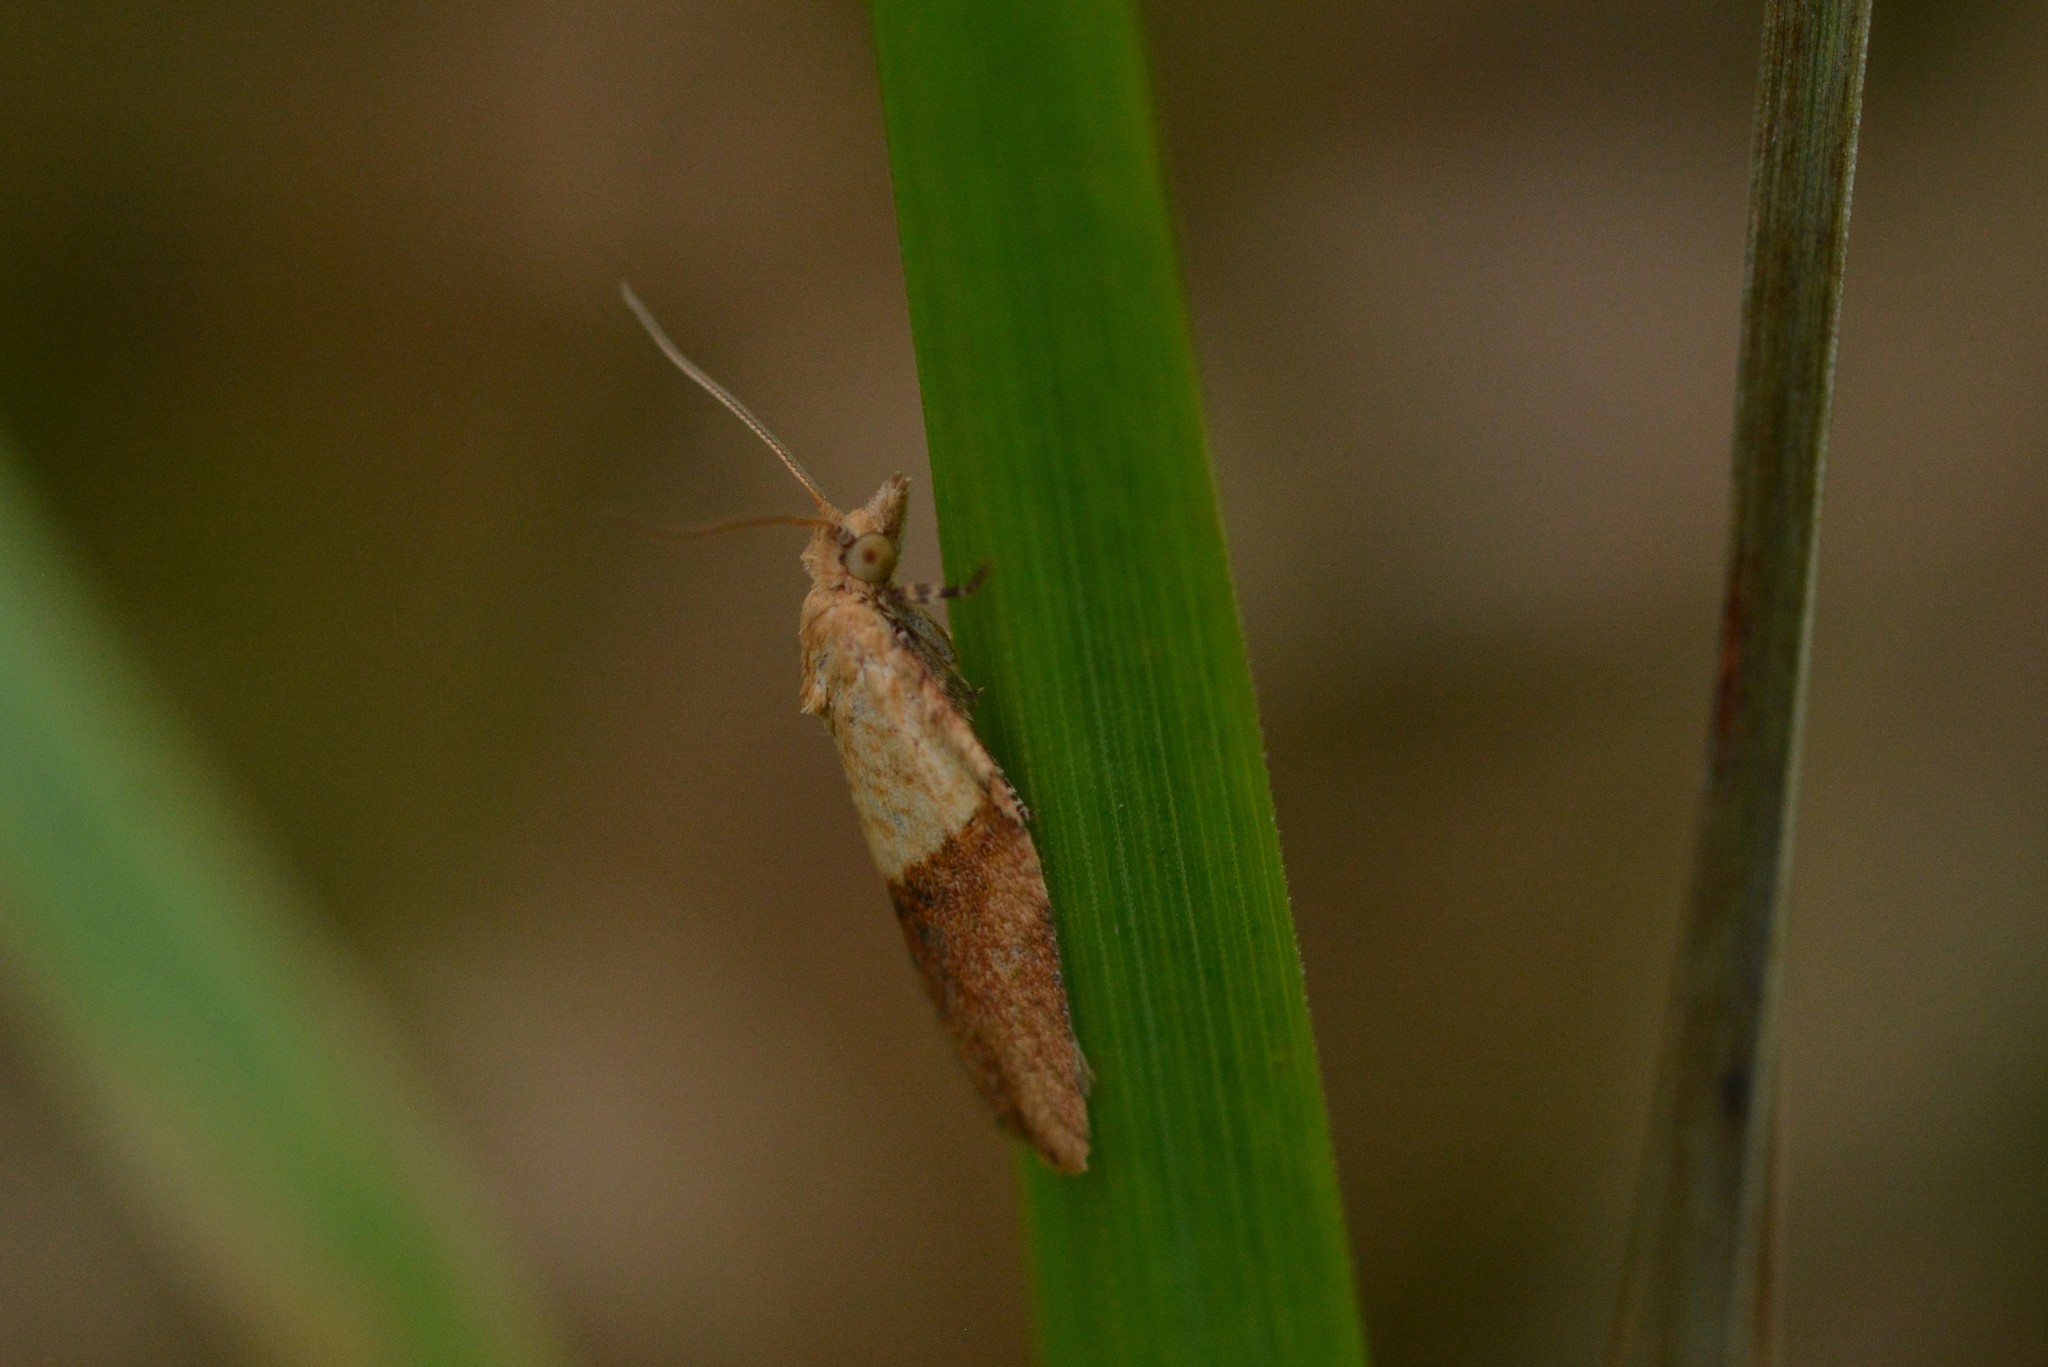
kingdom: Animalia
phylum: Arthropoda
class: Insecta
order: Lepidoptera
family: Tortricidae
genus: Epiphyas
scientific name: Epiphyas postvittana
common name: Light brown apple moth
